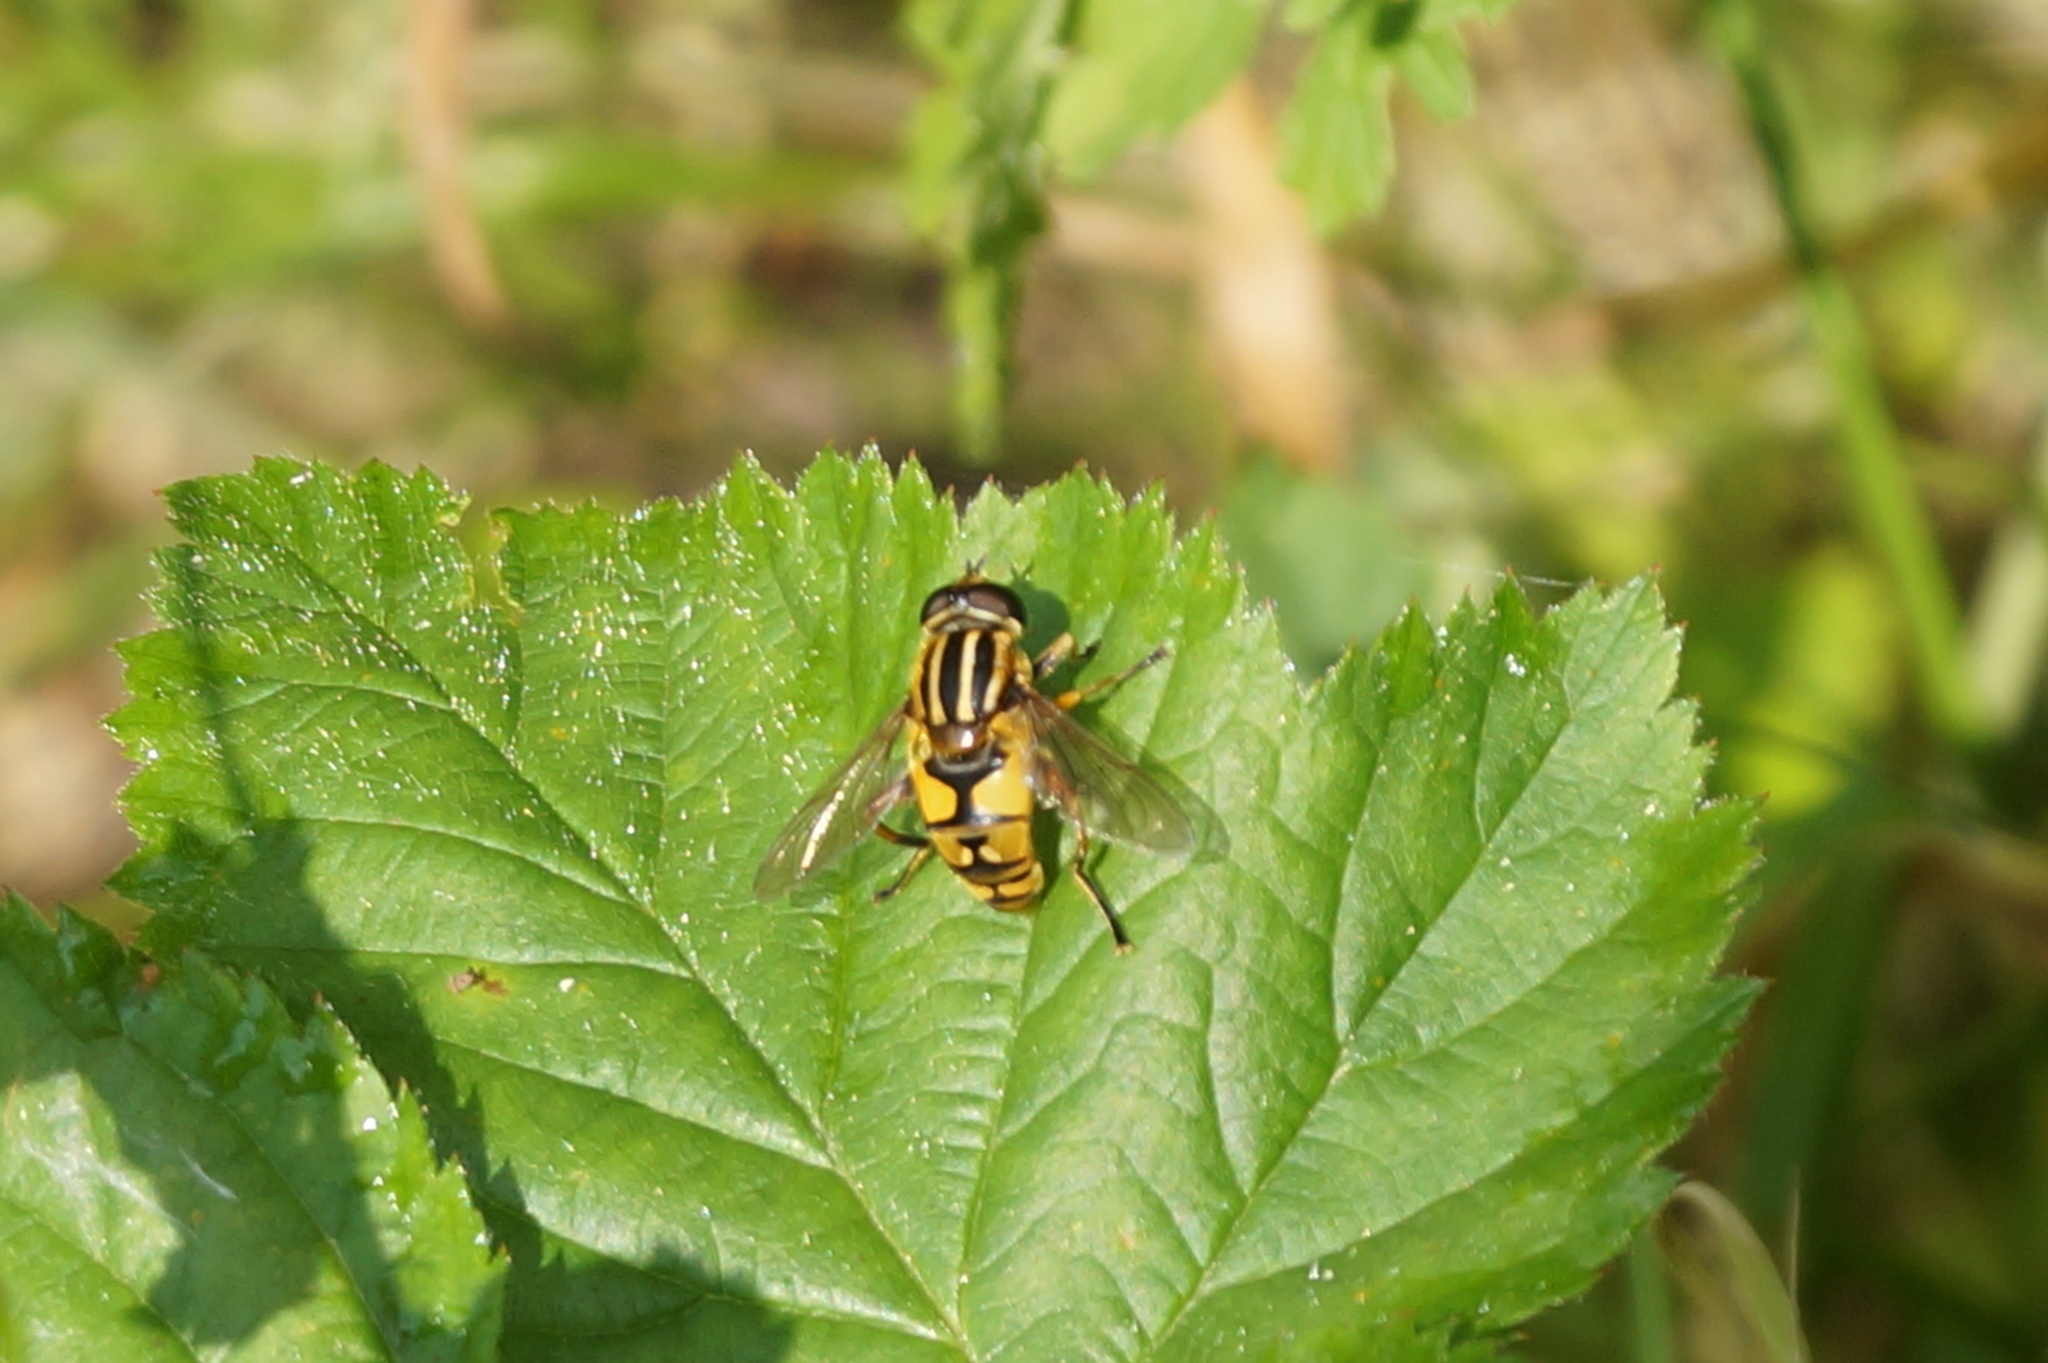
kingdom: Animalia
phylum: Arthropoda
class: Insecta
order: Diptera
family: Syrphidae
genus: Helophilus
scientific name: Helophilus pendulus
